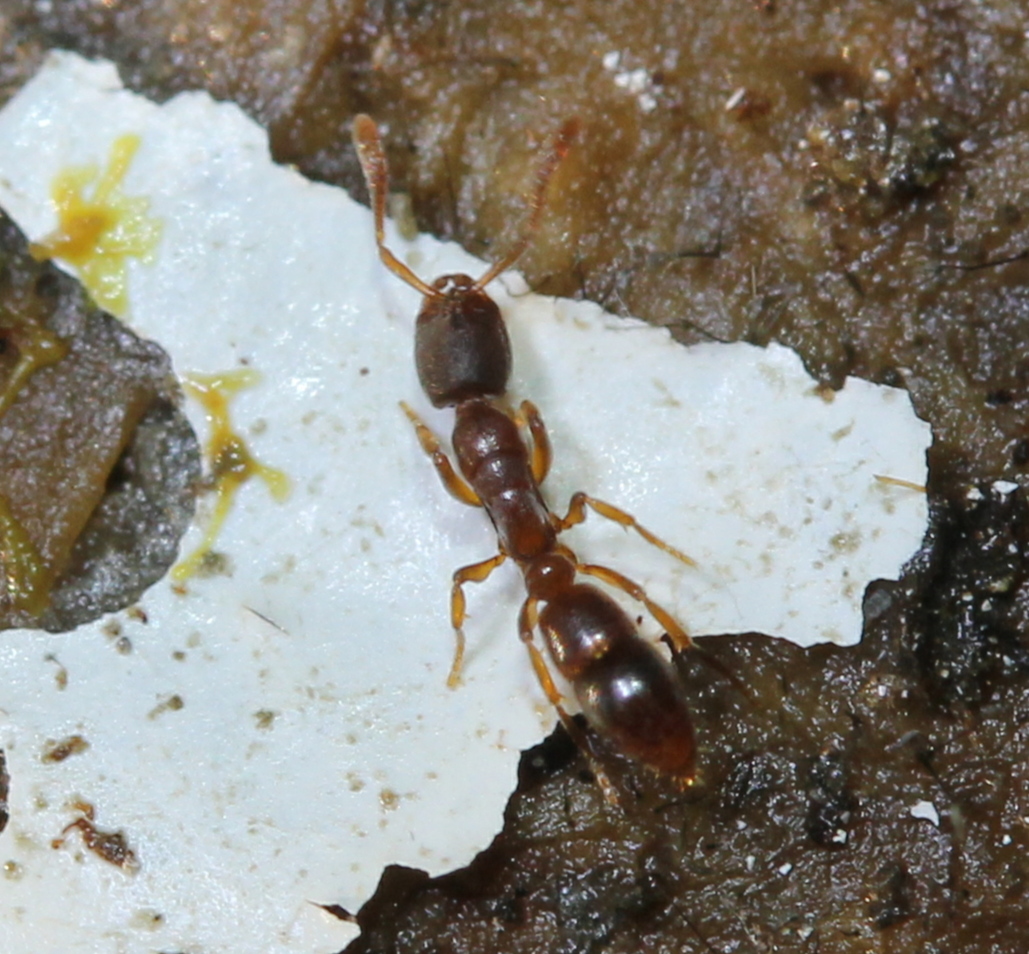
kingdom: Animalia
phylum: Arthropoda
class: Insecta
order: Hymenoptera
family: Formicidae
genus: Ponera
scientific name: Ponera pennsylvanica
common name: Pennsylvania ponera
